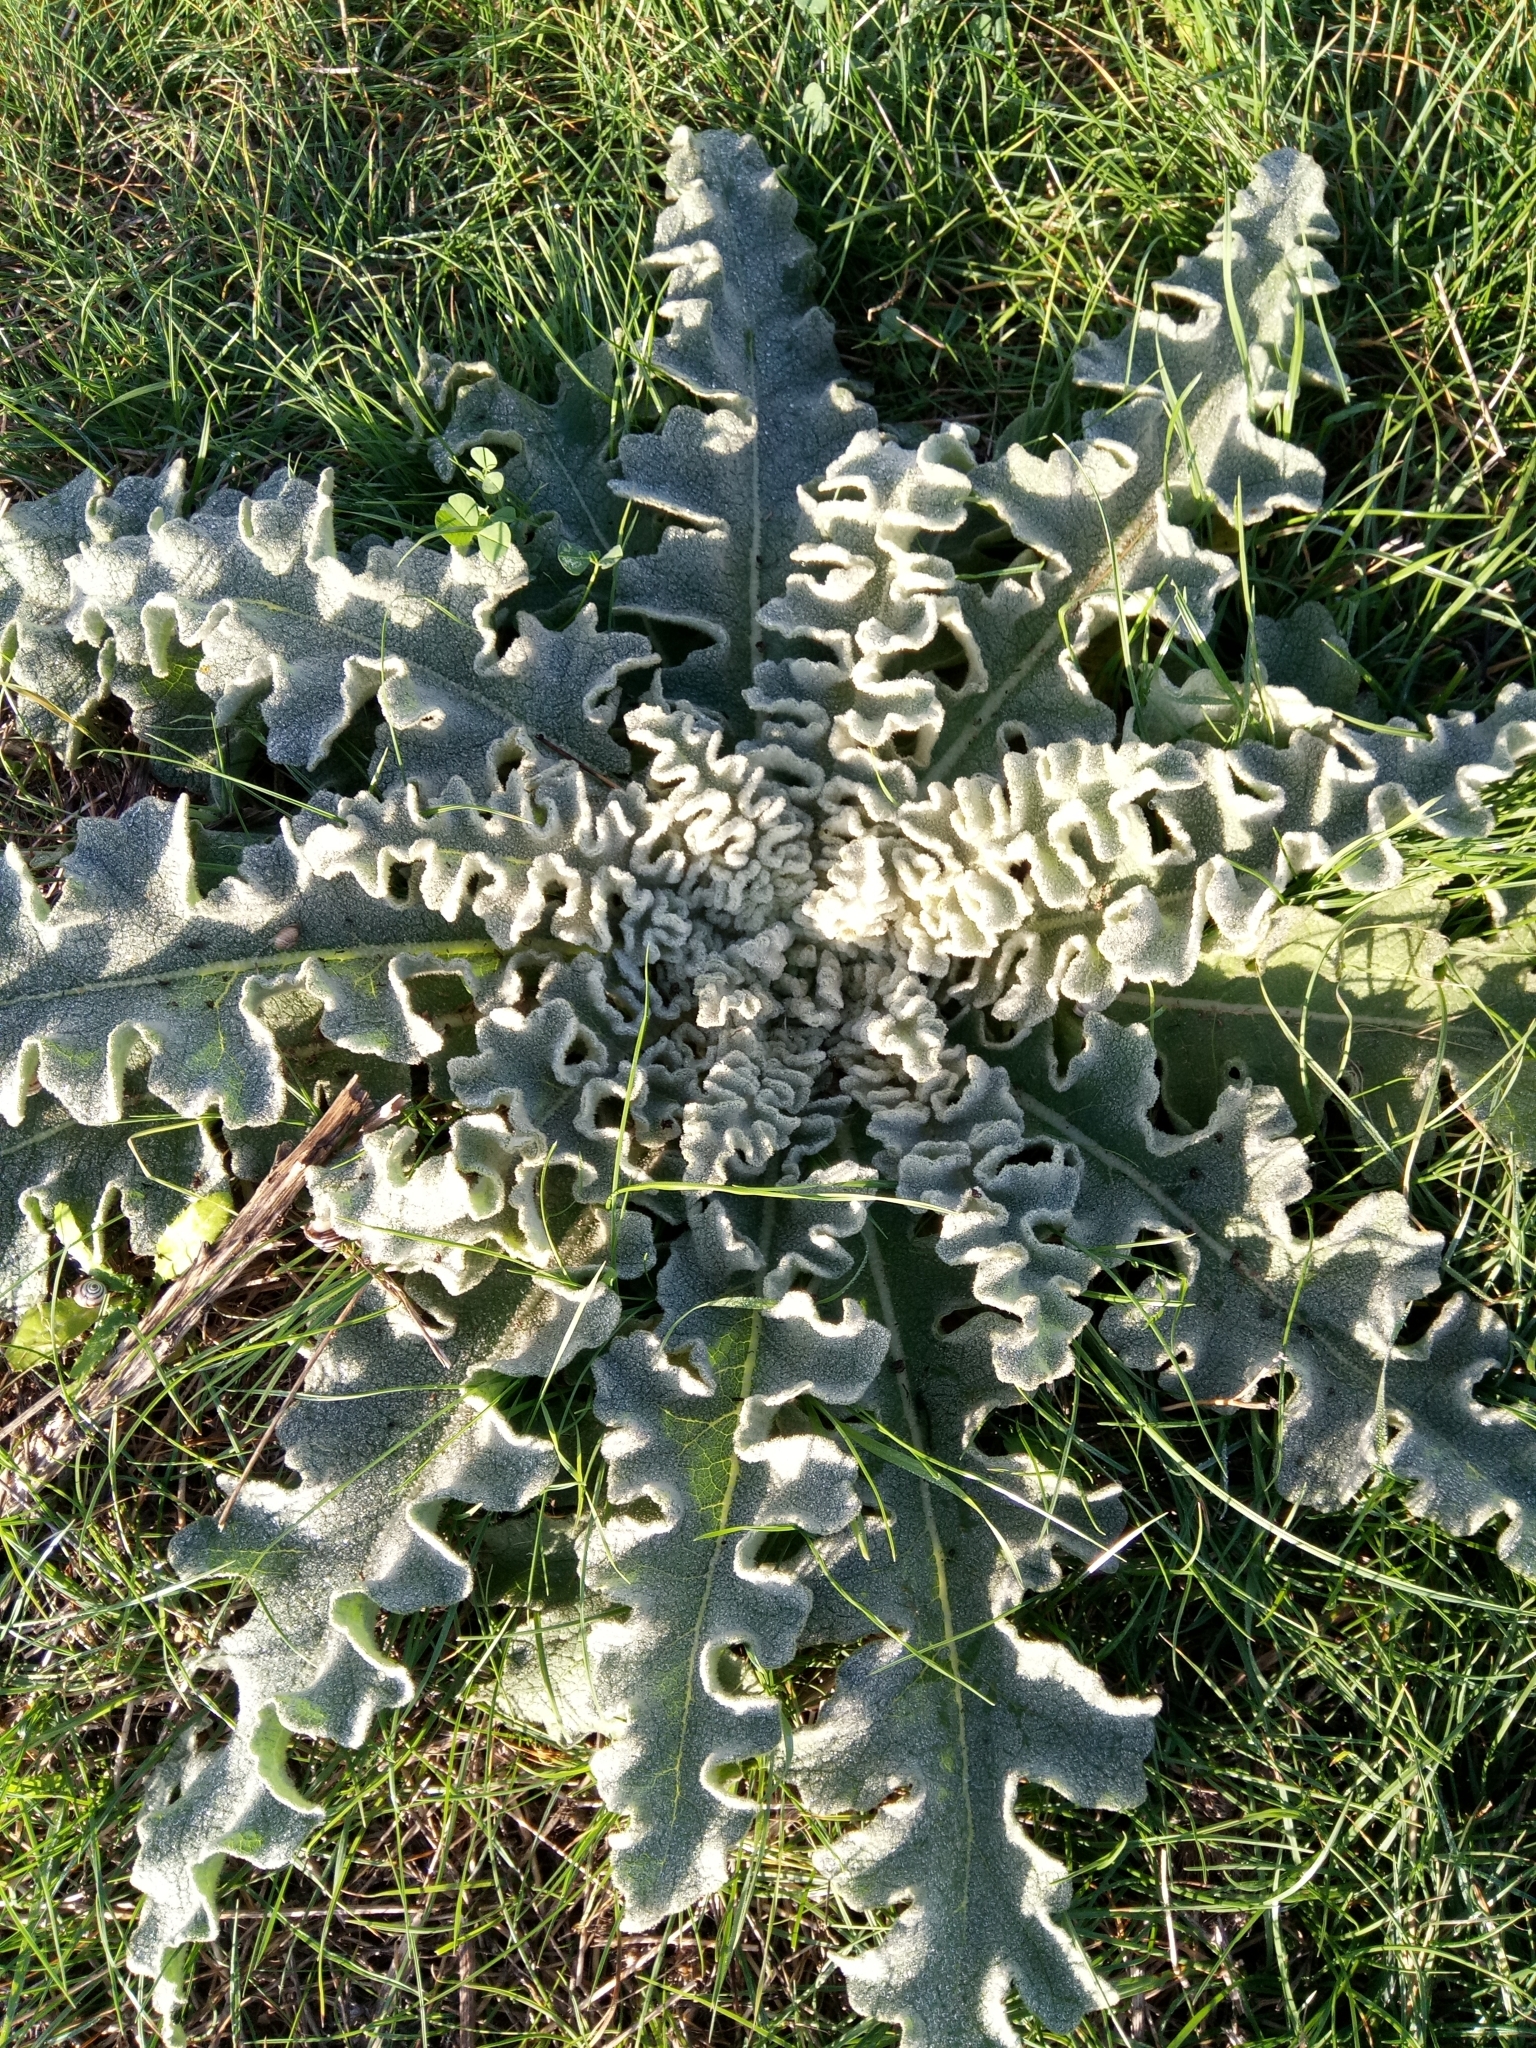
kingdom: Plantae
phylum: Tracheophyta
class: Magnoliopsida
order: Lamiales
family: Scrophulariaceae
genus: Verbascum
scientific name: Verbascum sinuatum
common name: Wavyleaf mullein
